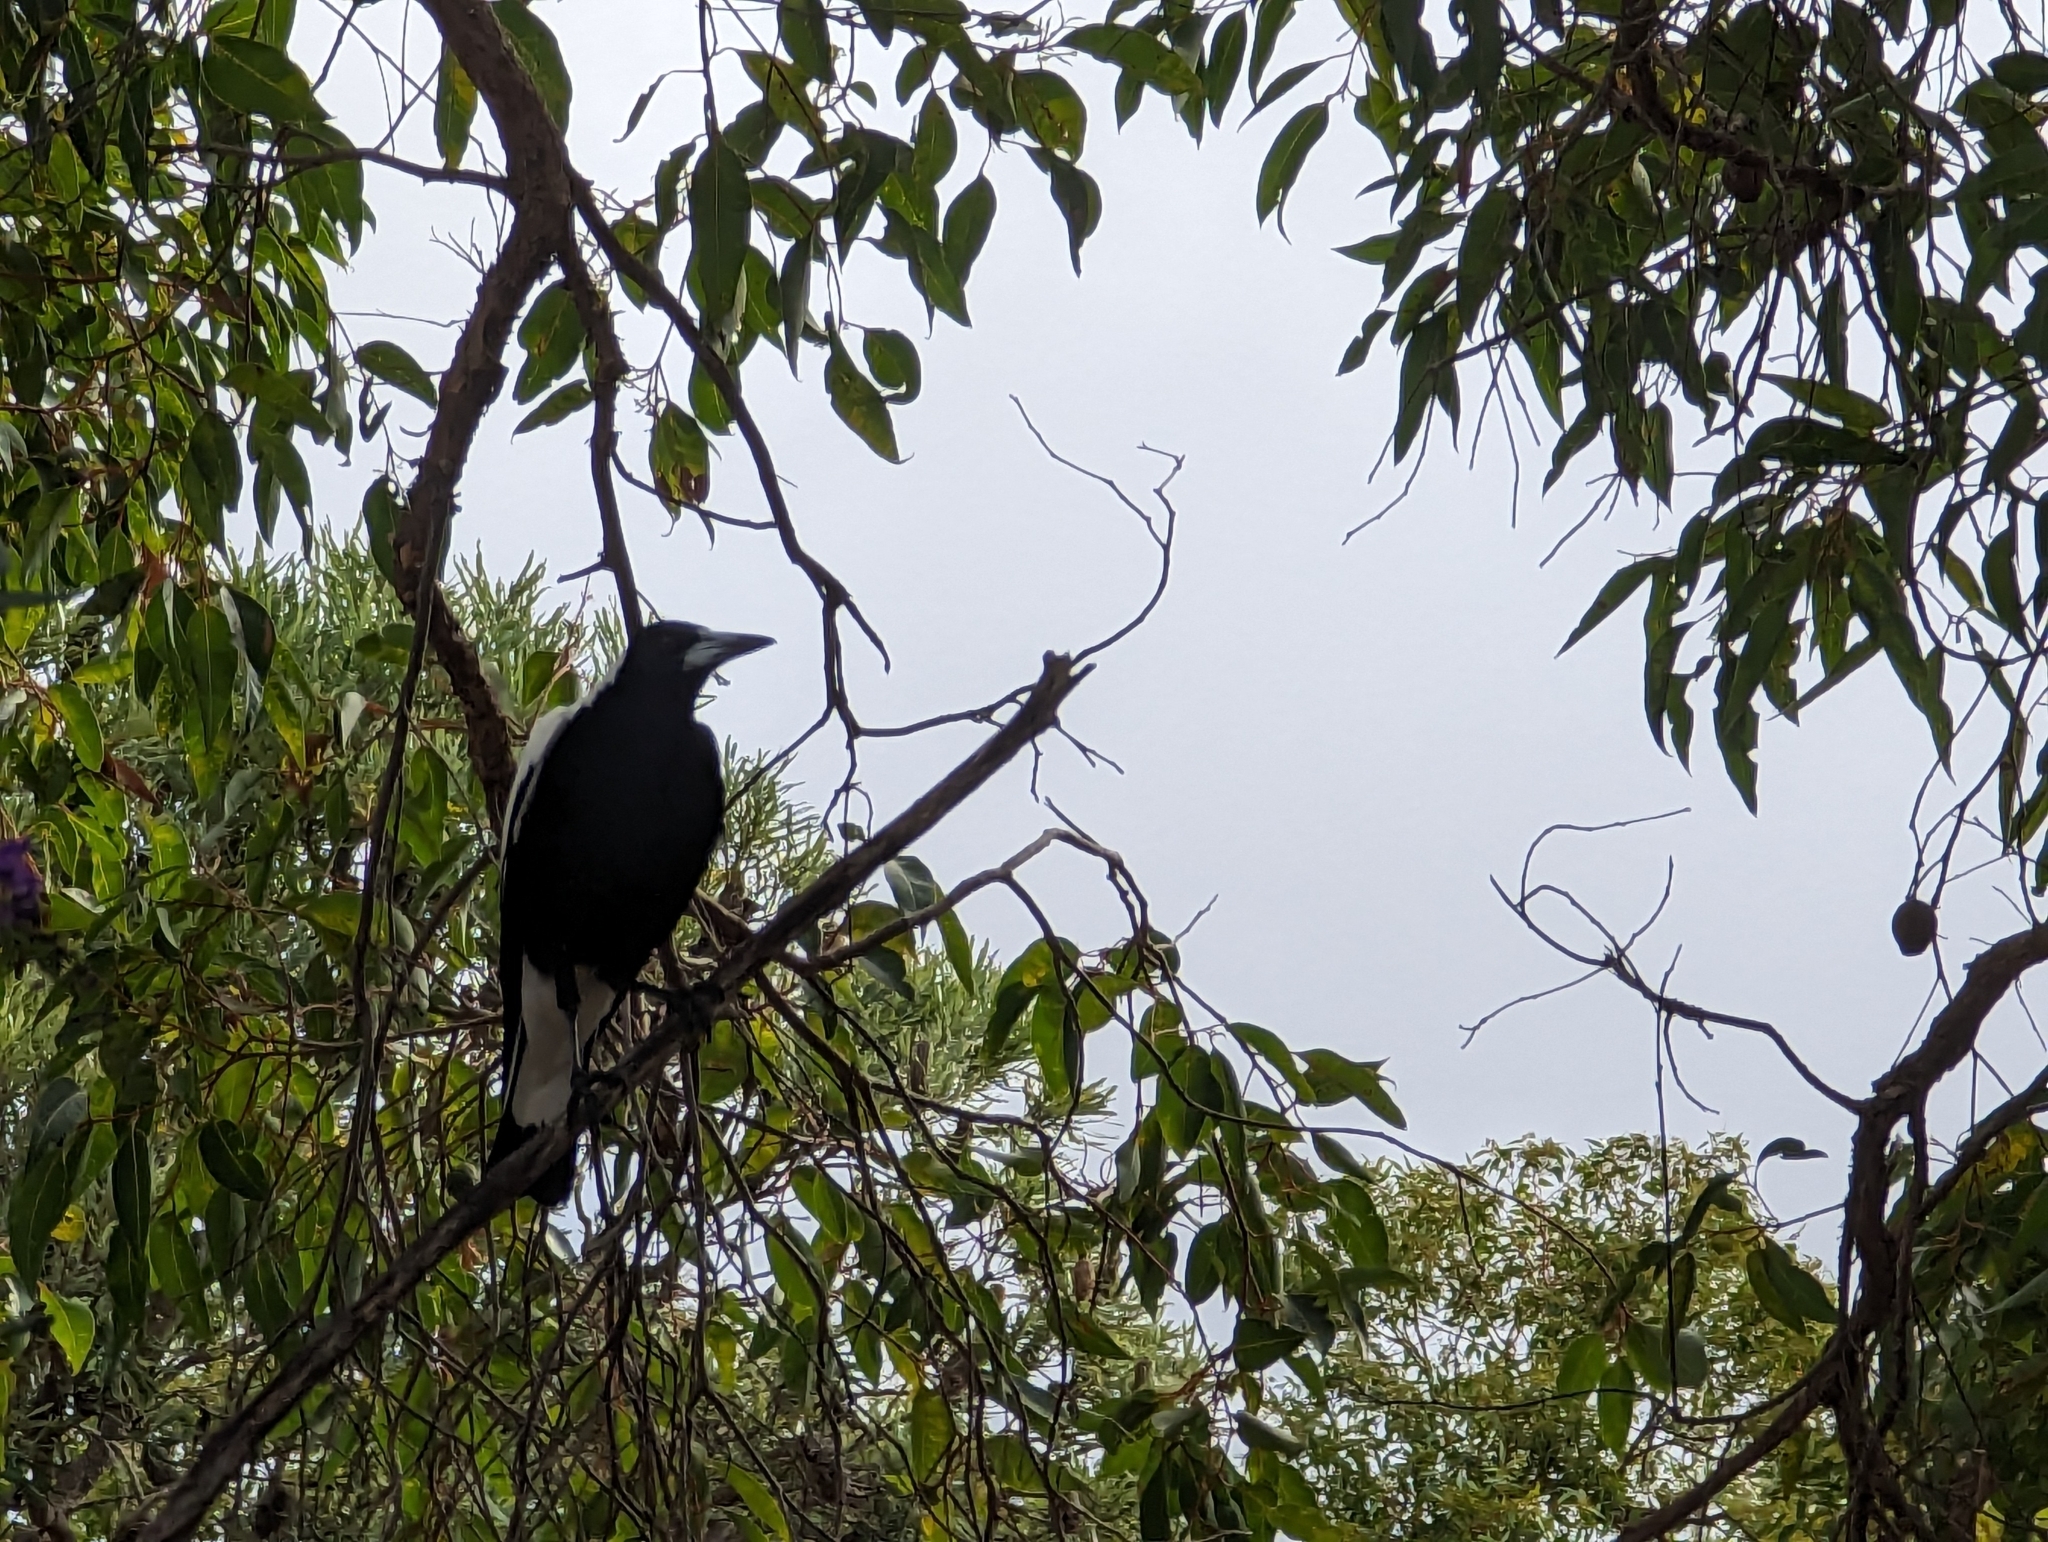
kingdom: Animalia
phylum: Chordata
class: Aves
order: Passeriformes
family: Cracticidae
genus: Gymnorhina
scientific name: Gymnorhina tibicen
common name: Australian magpie
